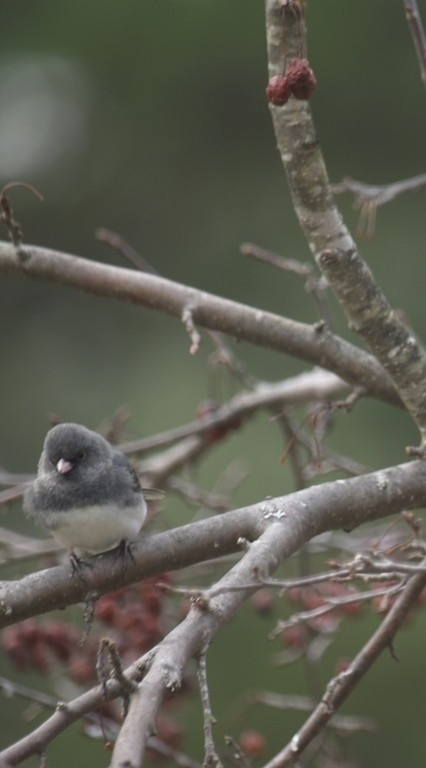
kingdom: Animalia
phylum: Chordata
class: Aves
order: Passeriformes
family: Passerellidae
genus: Junco
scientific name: Junco hyemalis
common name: Dark-eyed junco
